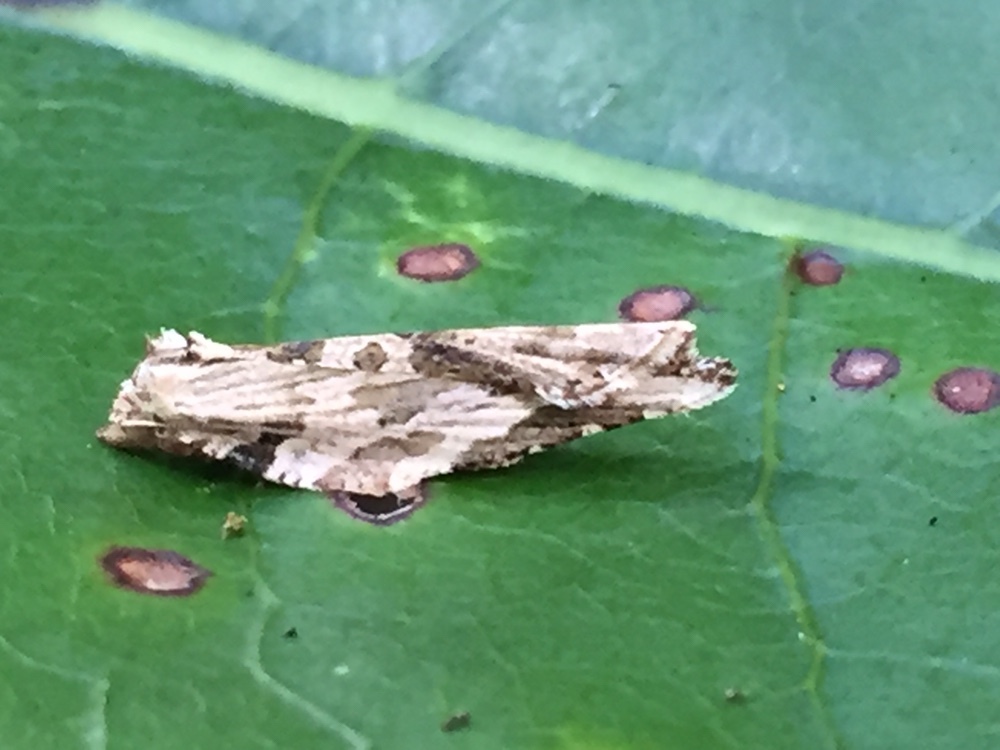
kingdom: Animalia
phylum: Arthropoda
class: Insecta
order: Lepidoptera
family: Tortricidae
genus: Epalxiphora
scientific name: Epalxiphora axenana
